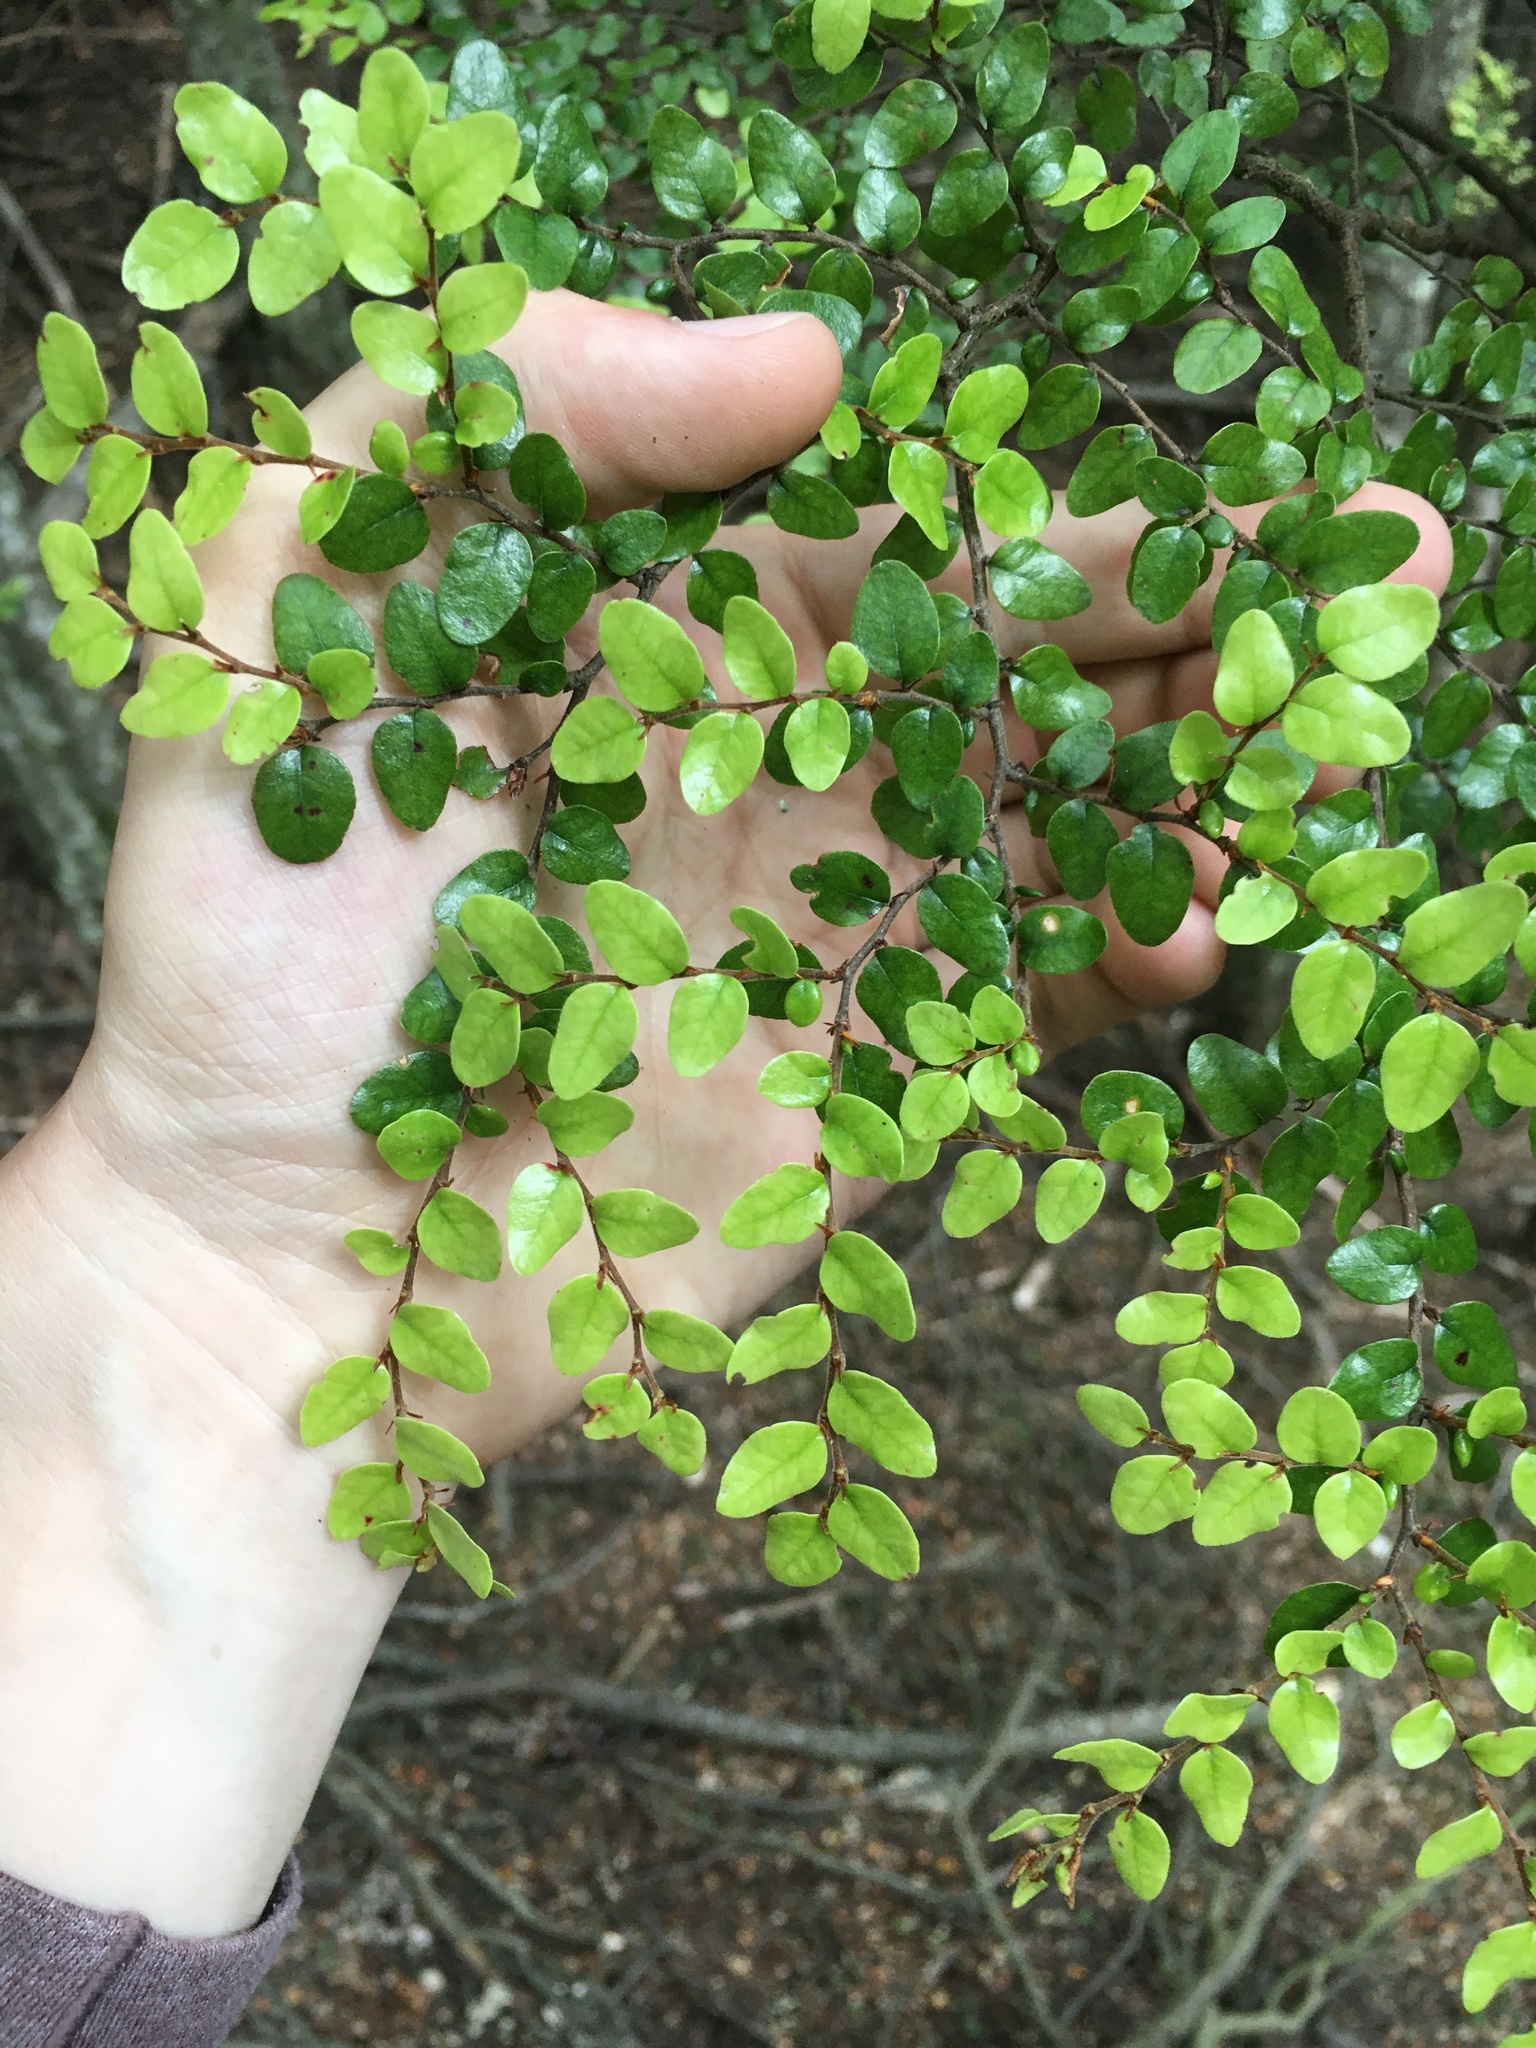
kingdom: Plantae
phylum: Tracheophyta
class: Magnoliopsida
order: Fagales
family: Nothofagaceae
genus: Nothofagus
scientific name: Nothofagus cliffortioides
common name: Mountain beech
